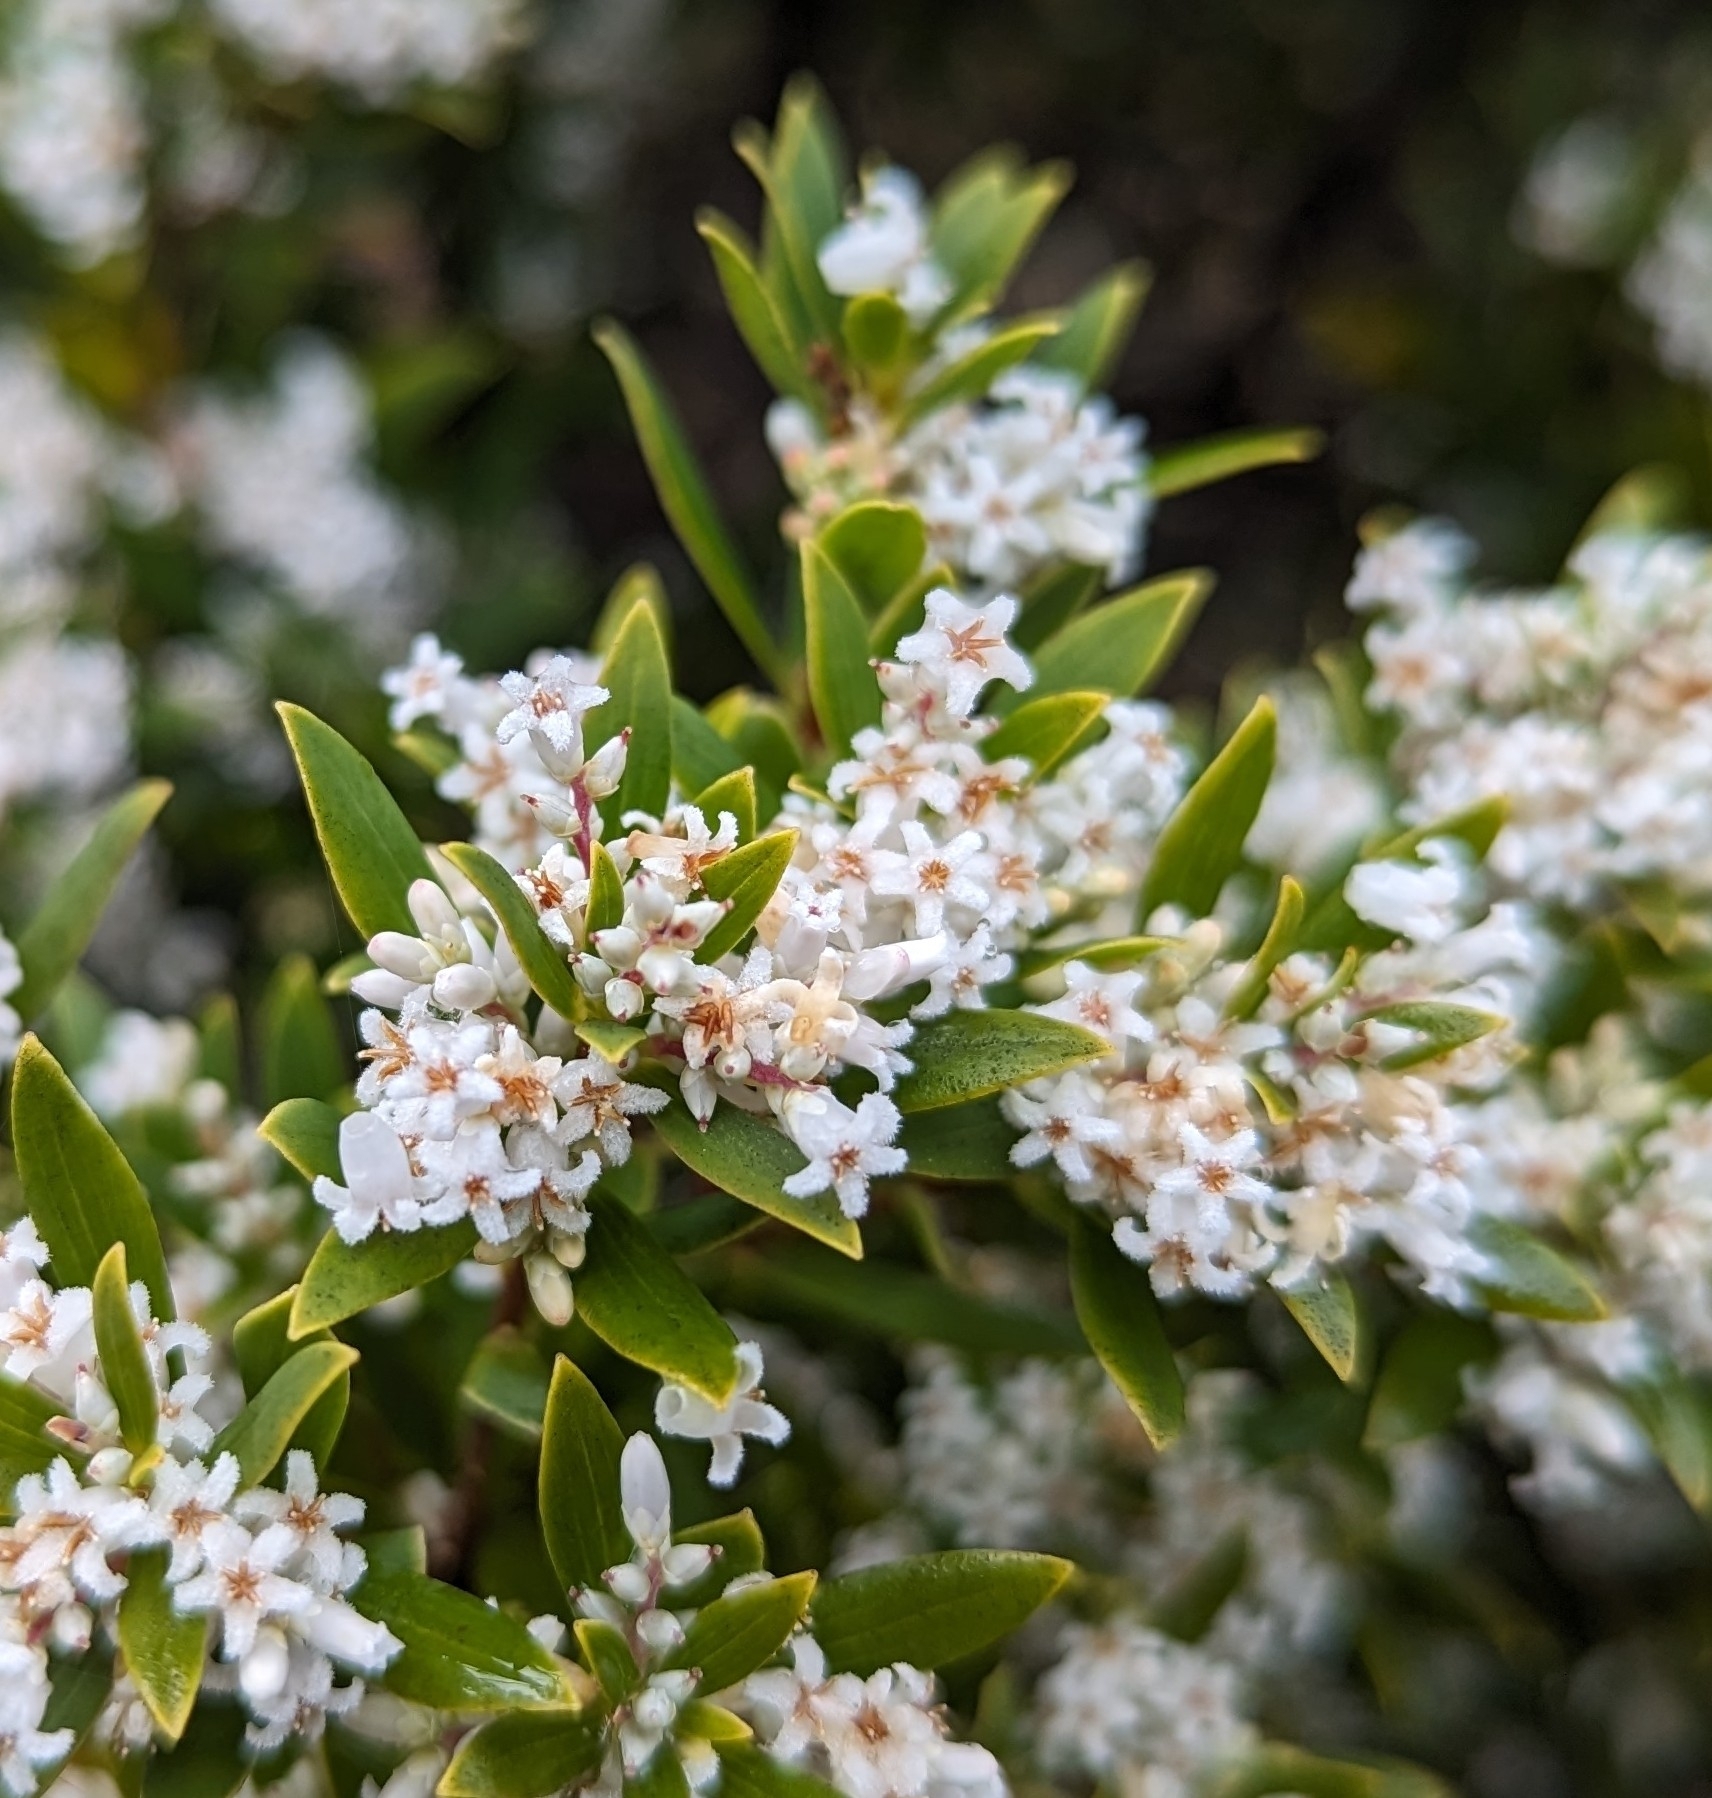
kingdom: Plantae
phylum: Tracheophyta
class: Magnoliopsida
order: Ericales
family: Ericaceae
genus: Leptecophylla
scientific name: Leptecophylla parvifolia
